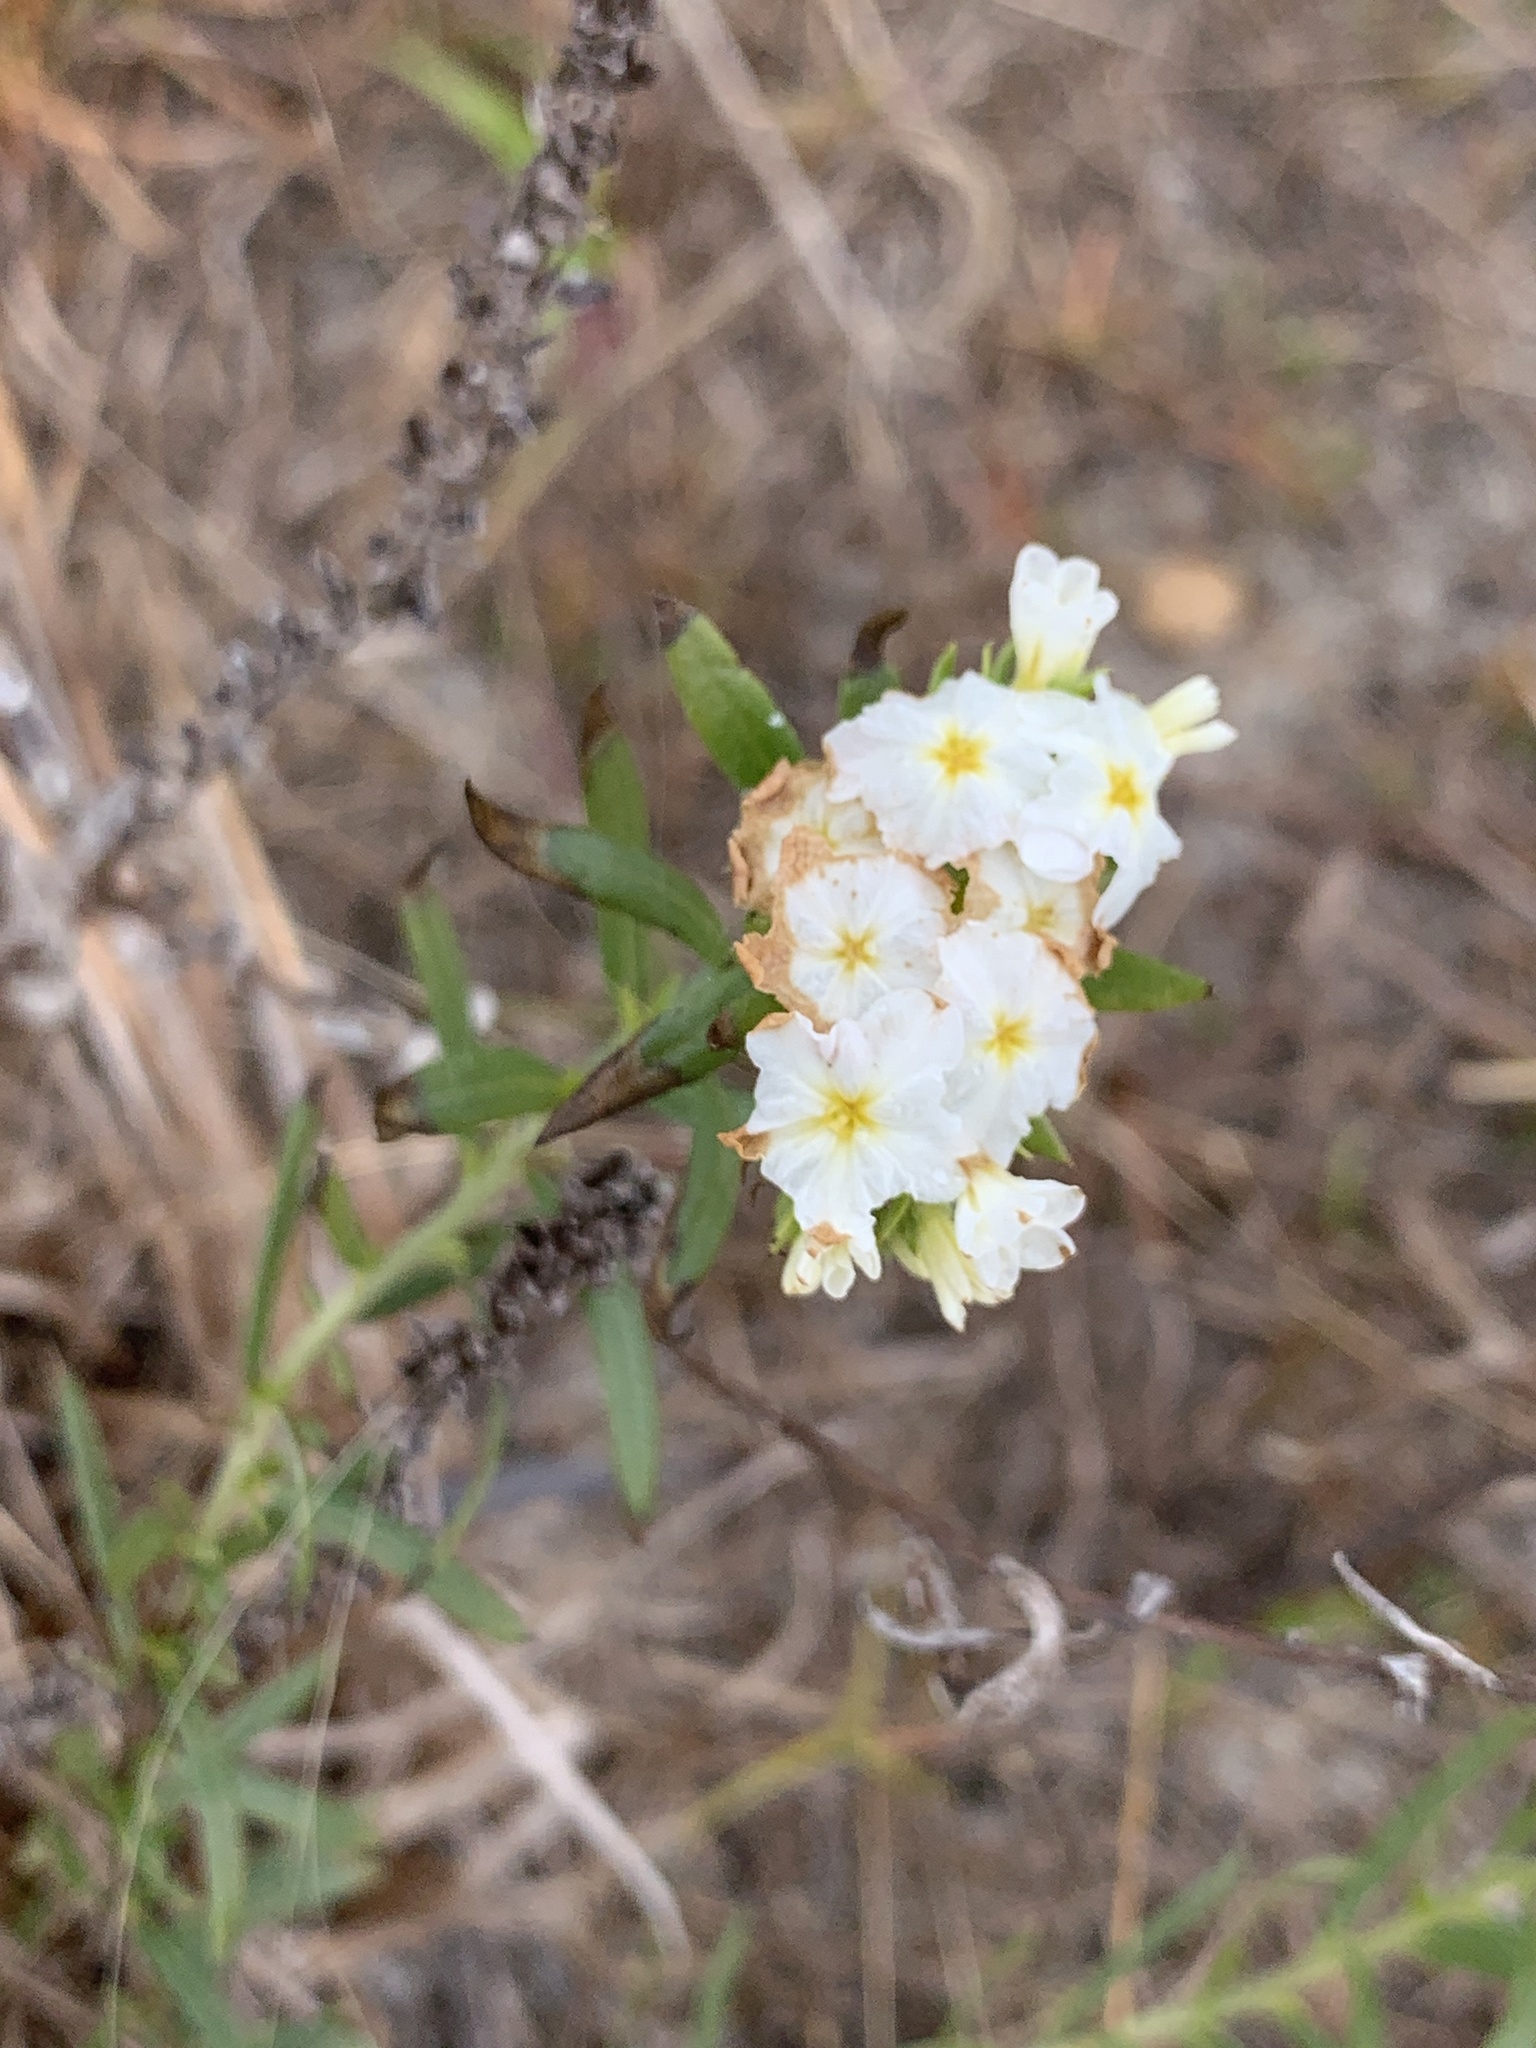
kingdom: Plantae
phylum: Tracheophyta
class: Magnoliopsida
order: Boraginales
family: Heliotropiaceae
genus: Euploca
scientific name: Euploca polyphylla
